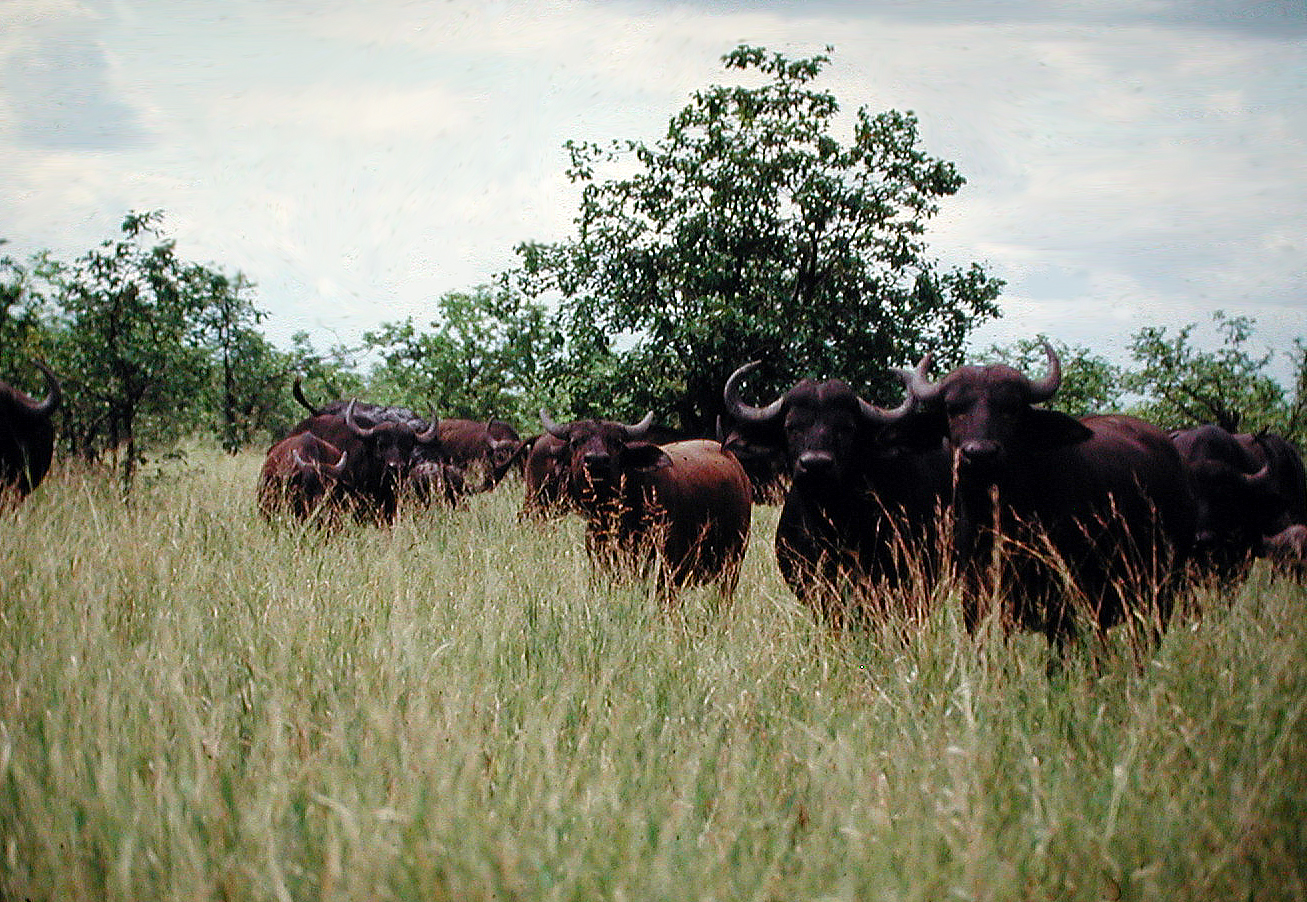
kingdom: Animalia
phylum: Chordata
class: Mammalia
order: Artiodactyla
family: Bovidae
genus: Syncerus
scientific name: Syncerus caffer
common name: African buffalo
